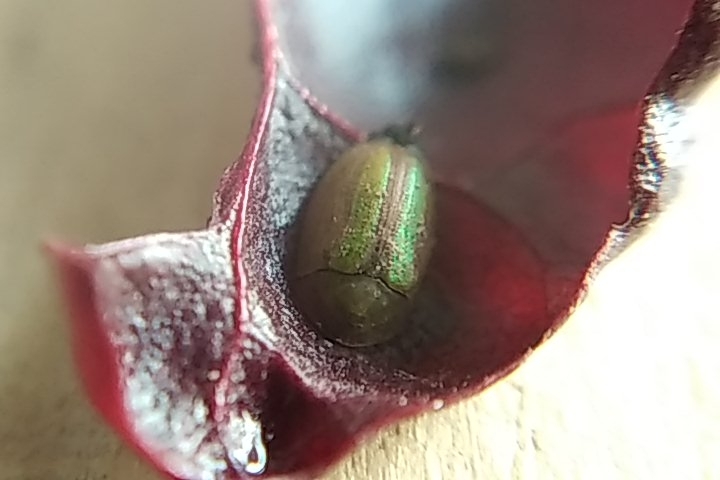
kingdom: Animalia
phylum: Arthropoda
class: Insecta
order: Coleoptera
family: Chrysomelidae
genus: Cassida
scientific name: Cassida vittata
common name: Bordered tortoise beetle
